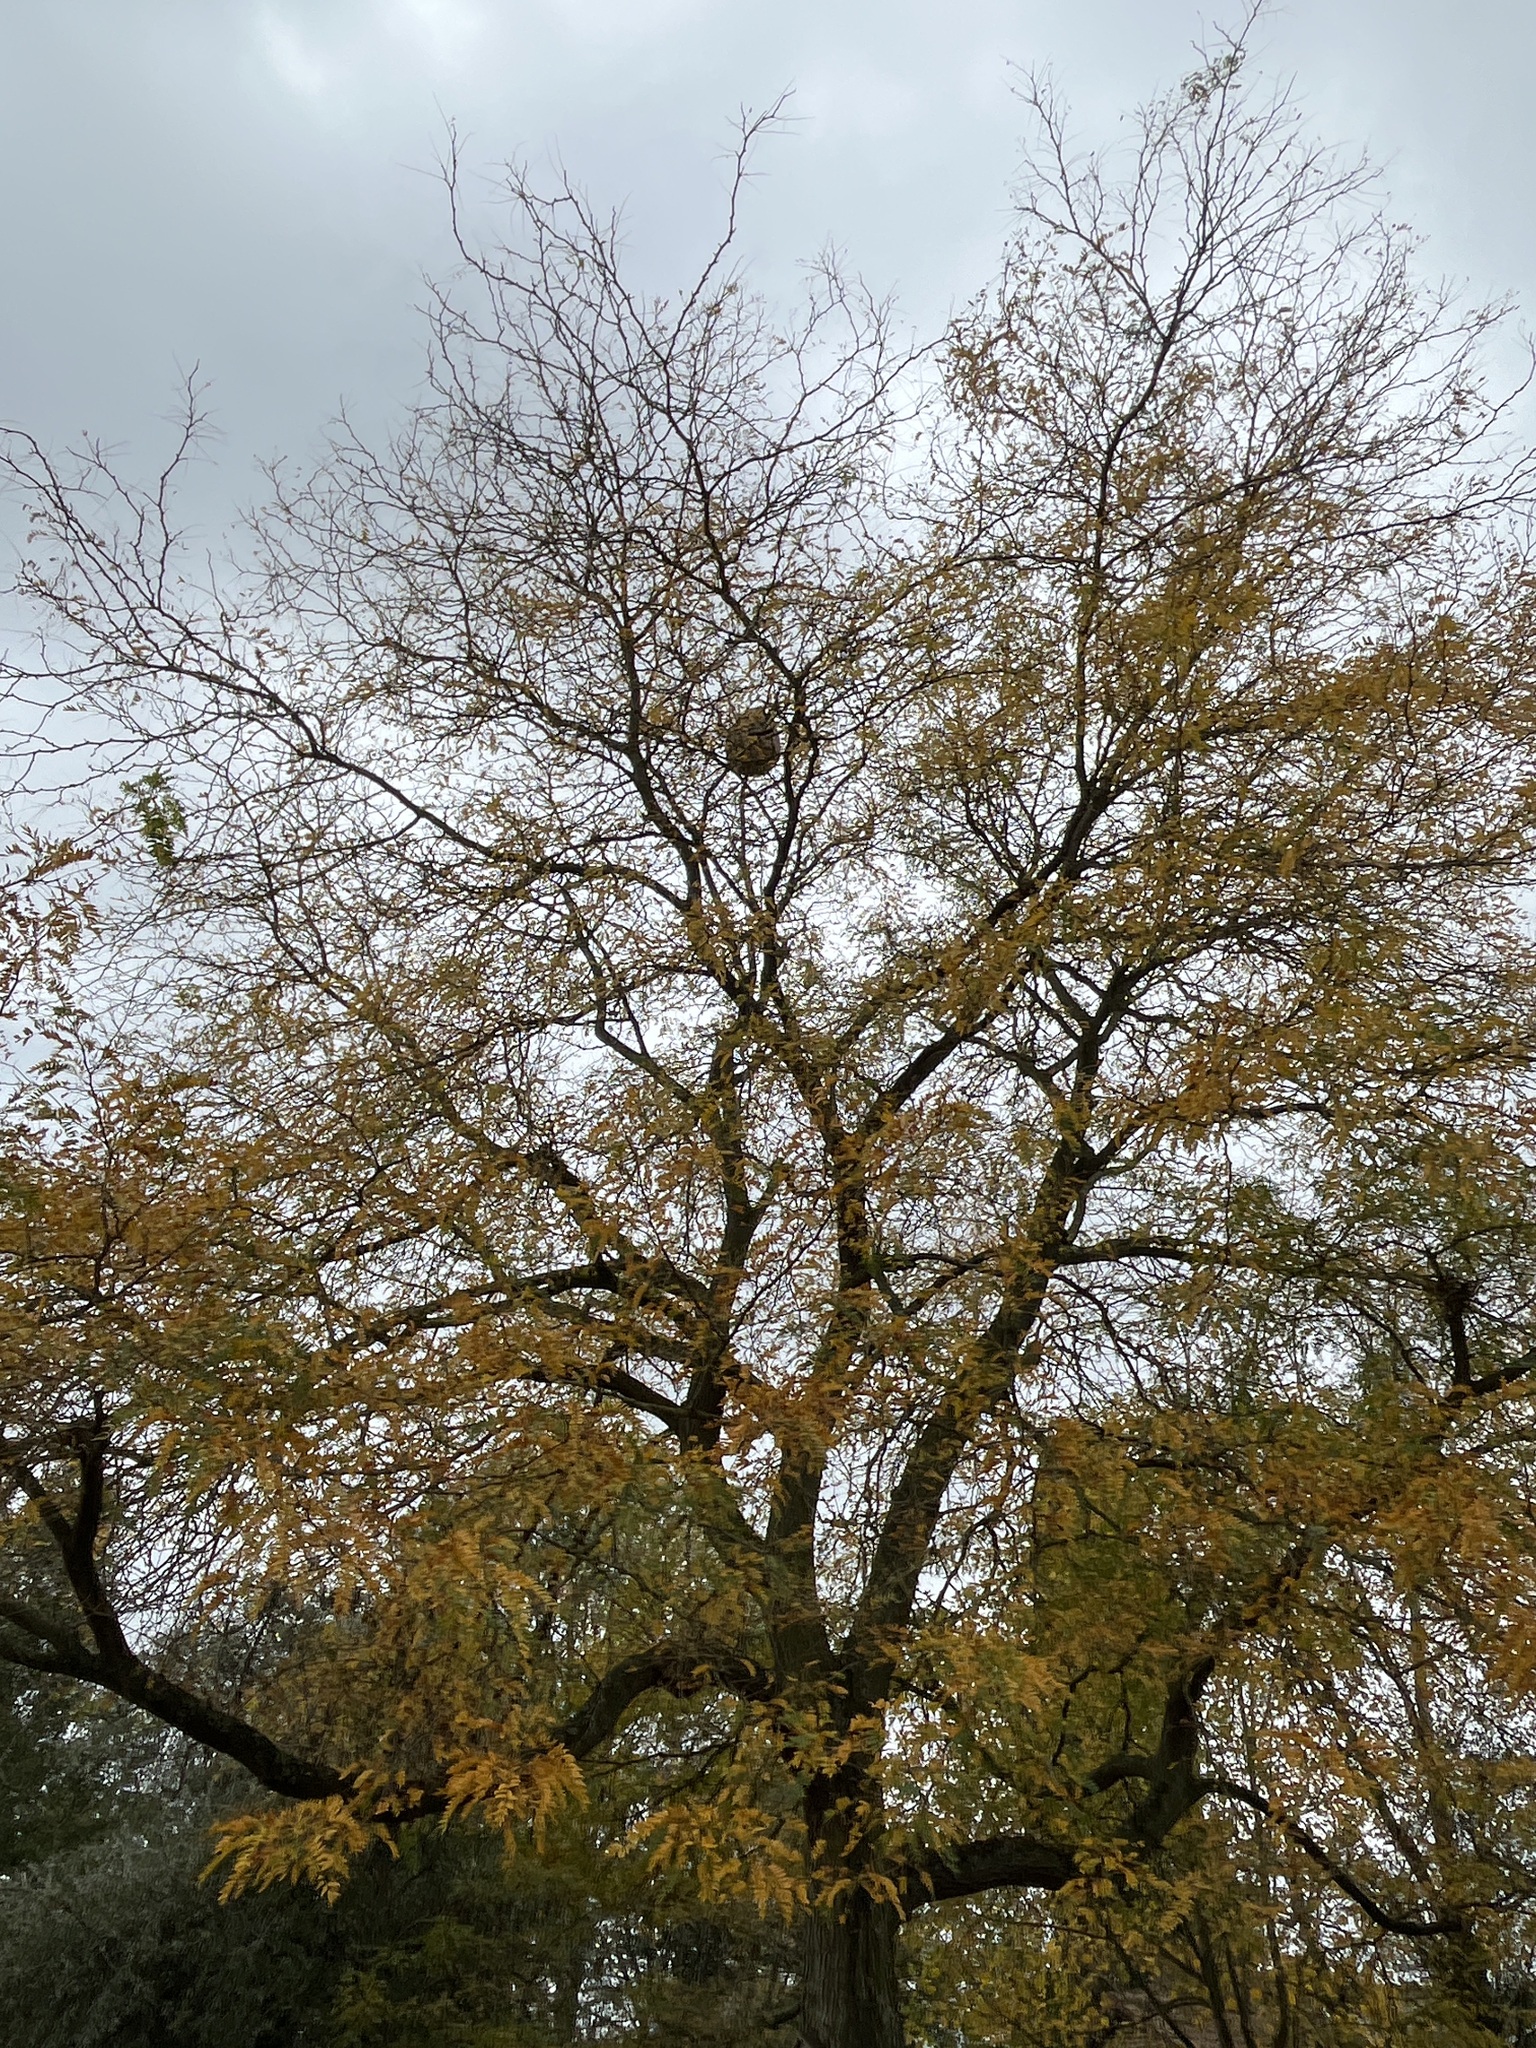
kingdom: Animalia
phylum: Arthropoda
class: Insecta
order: Hymenoptera
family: Vespidae
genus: Vespa
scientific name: Vespa velutina
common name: Asian hornet
